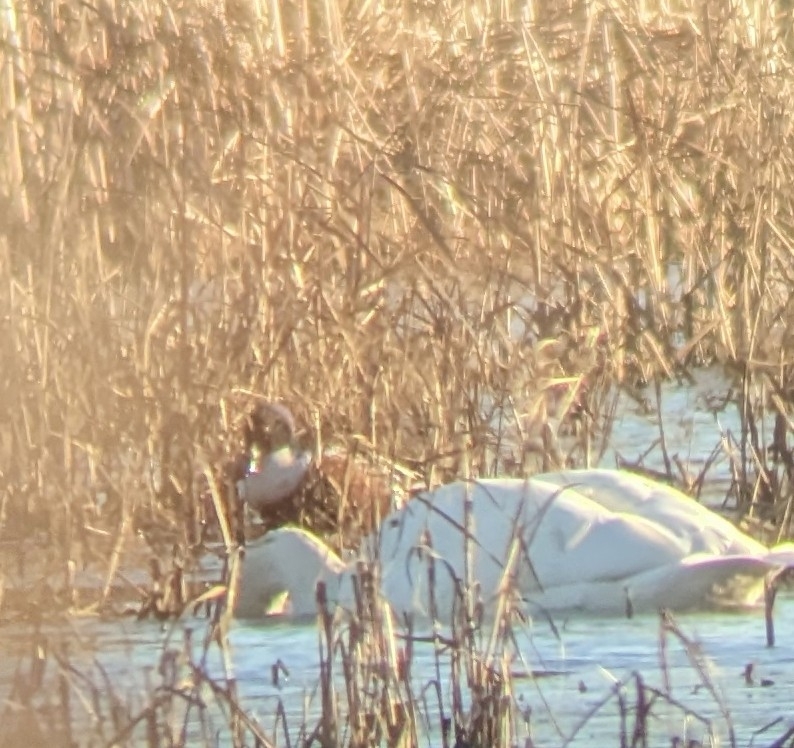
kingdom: Animalia
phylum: Chordata
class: Aves
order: Anseriformes
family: Anatidae
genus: Spatula
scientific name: Spatula clypeata
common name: Northern shoveler
